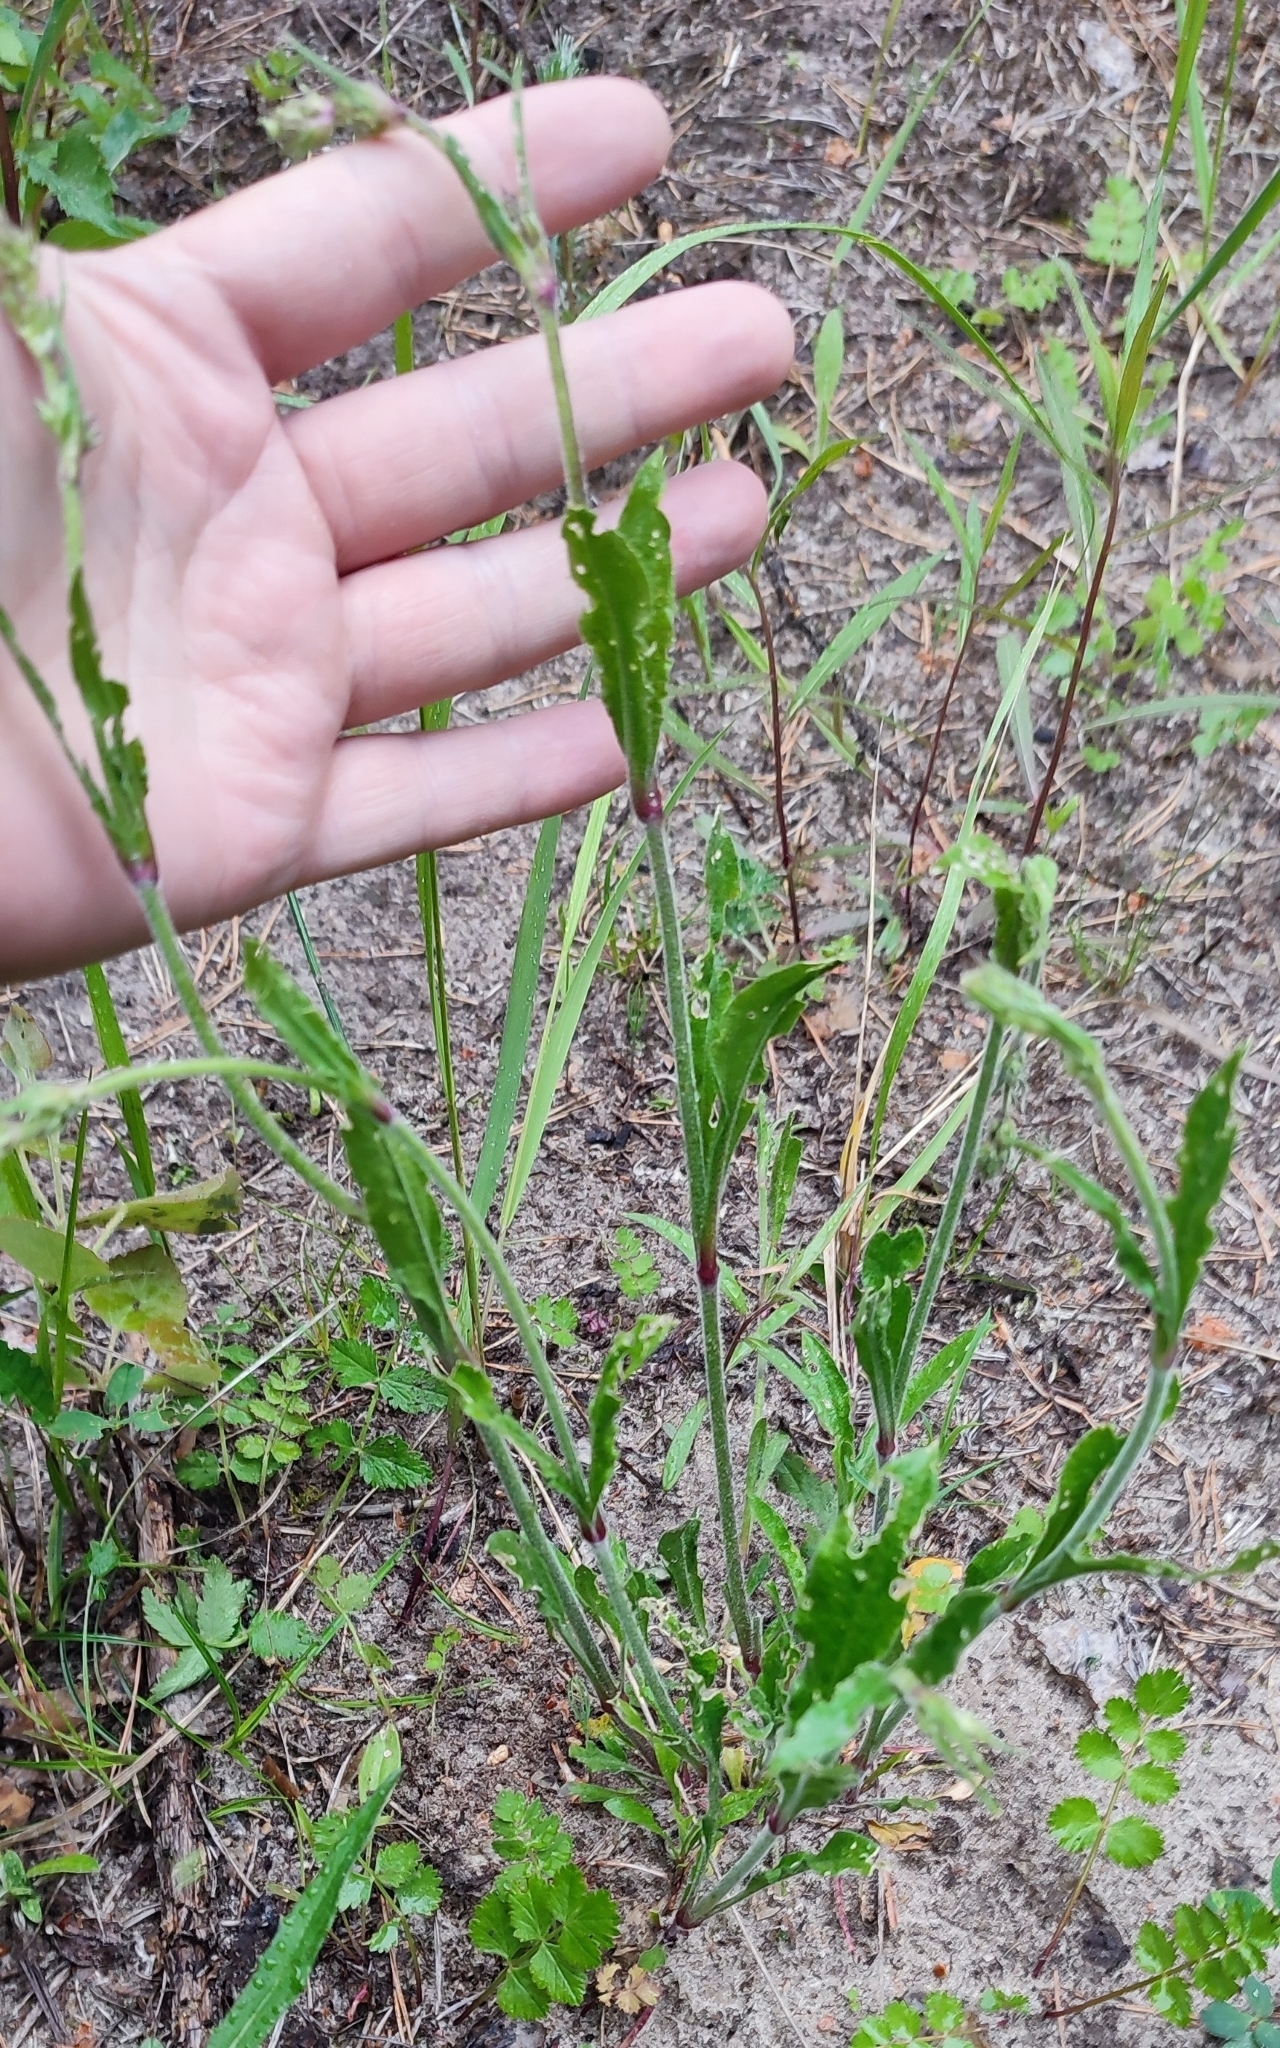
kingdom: Plantae
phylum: Tracheophyta
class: Magnoliopsida
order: Caryophyllales
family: Caryophyllaceae
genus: Silene
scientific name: Silene nutans
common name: Nottingham catchfly
